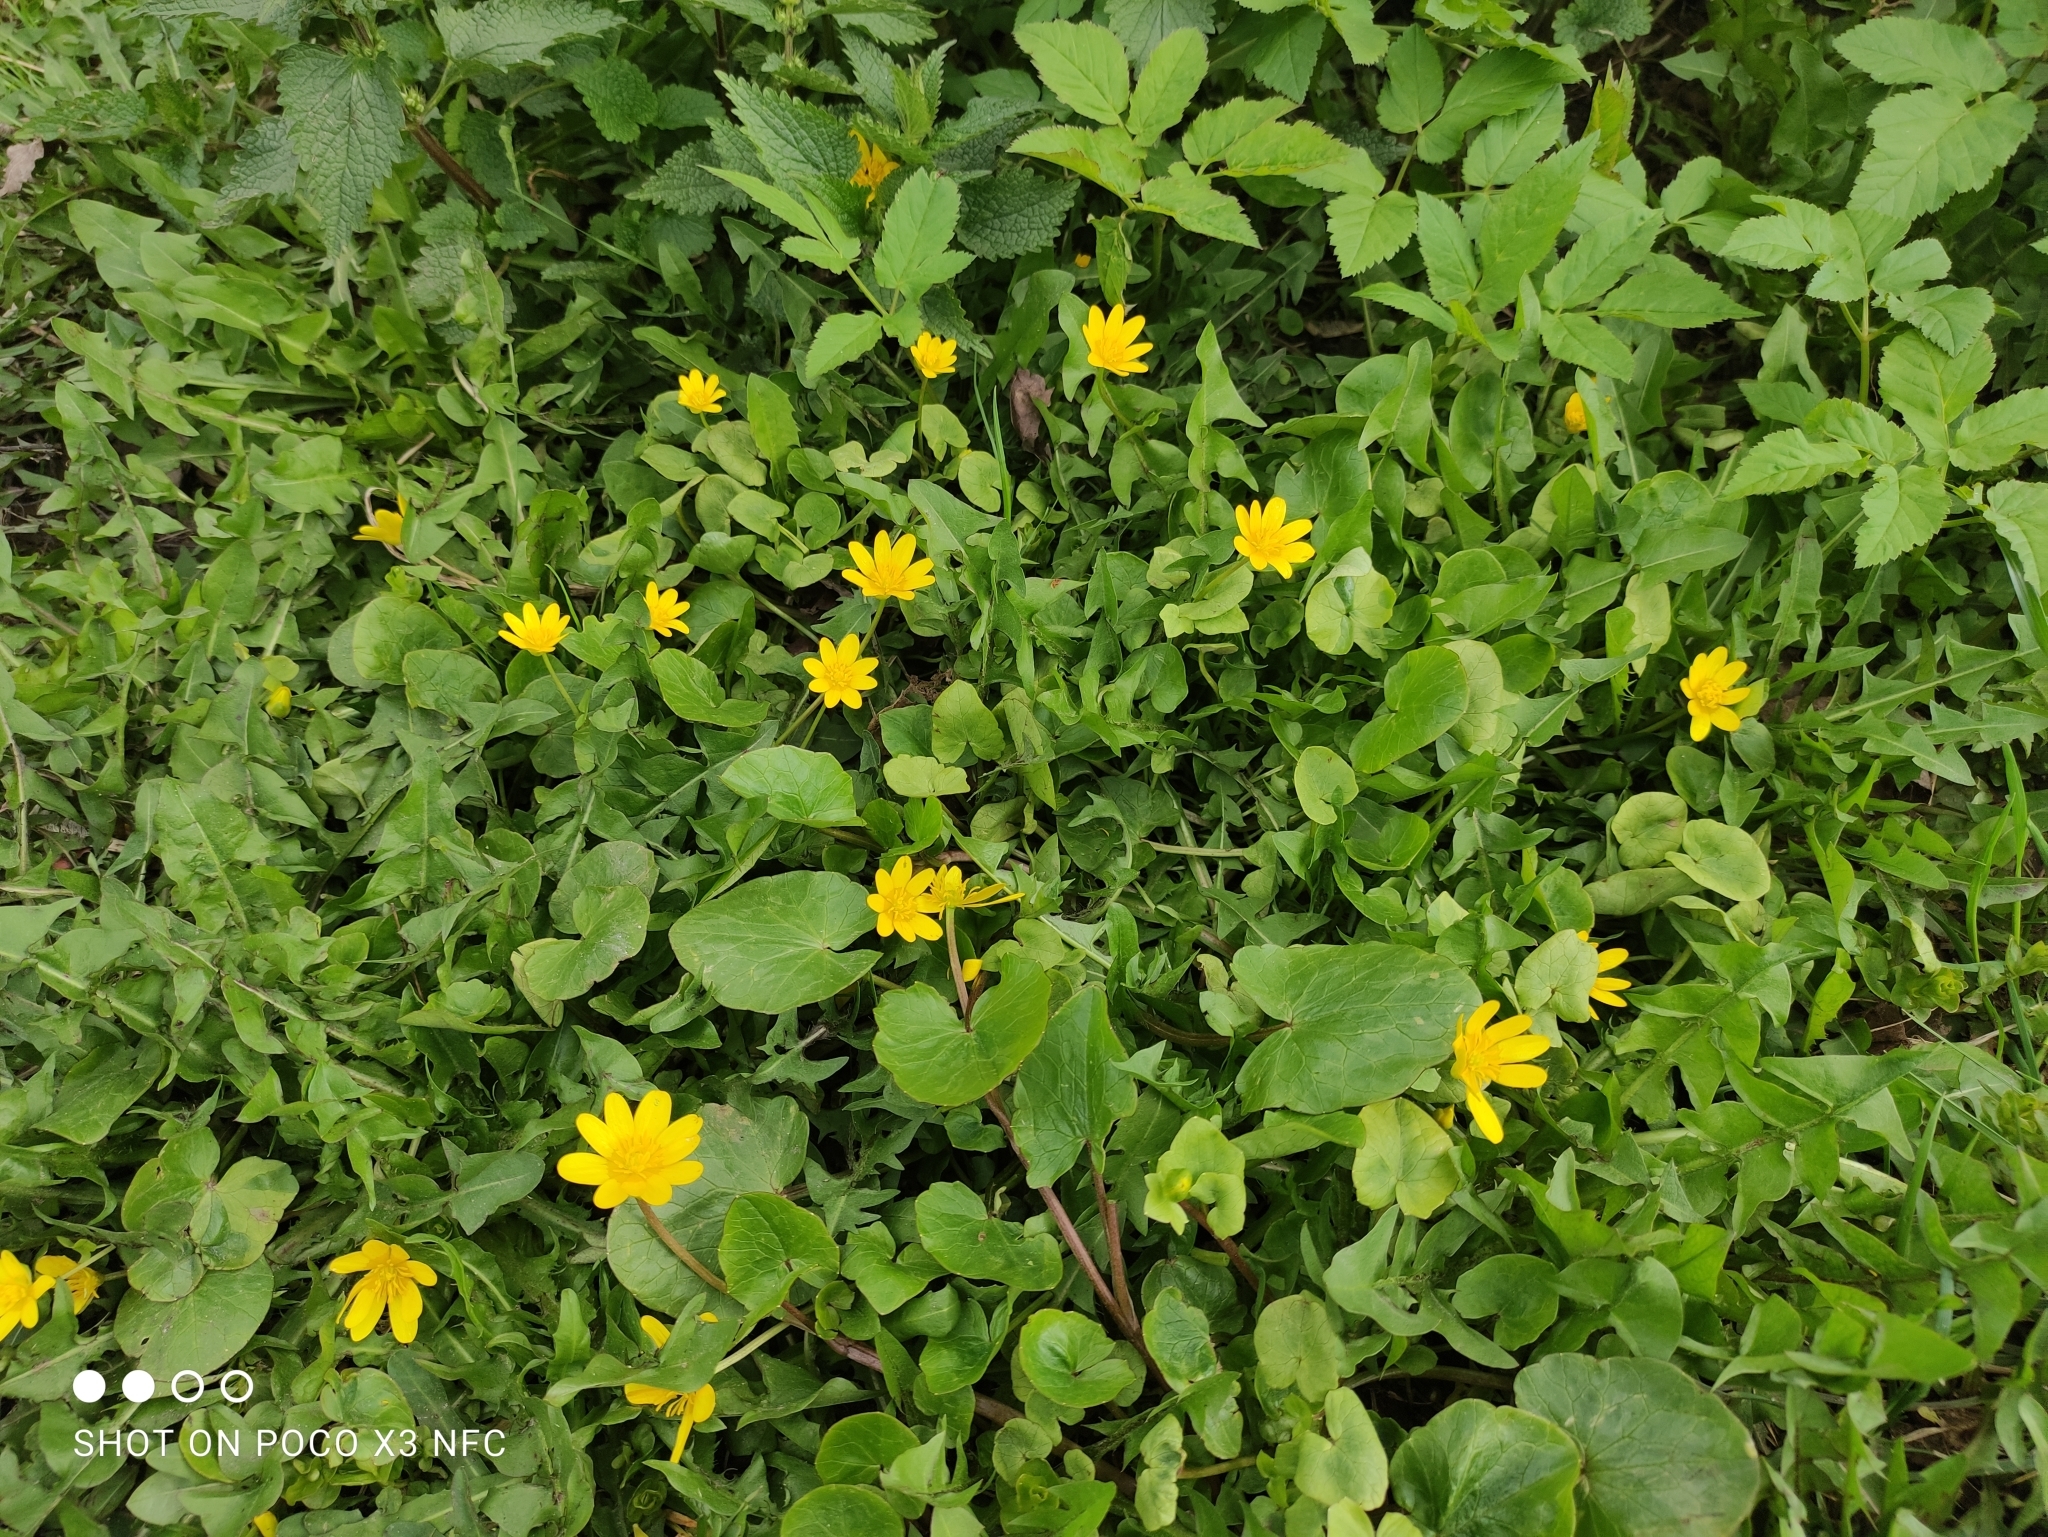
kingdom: Plantae
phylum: Tracheophyta
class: Magnoliopsida
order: Ranunculales
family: Ranunculaceae
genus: Ficaria
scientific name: Ficaria verna
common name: Lesser celandine
